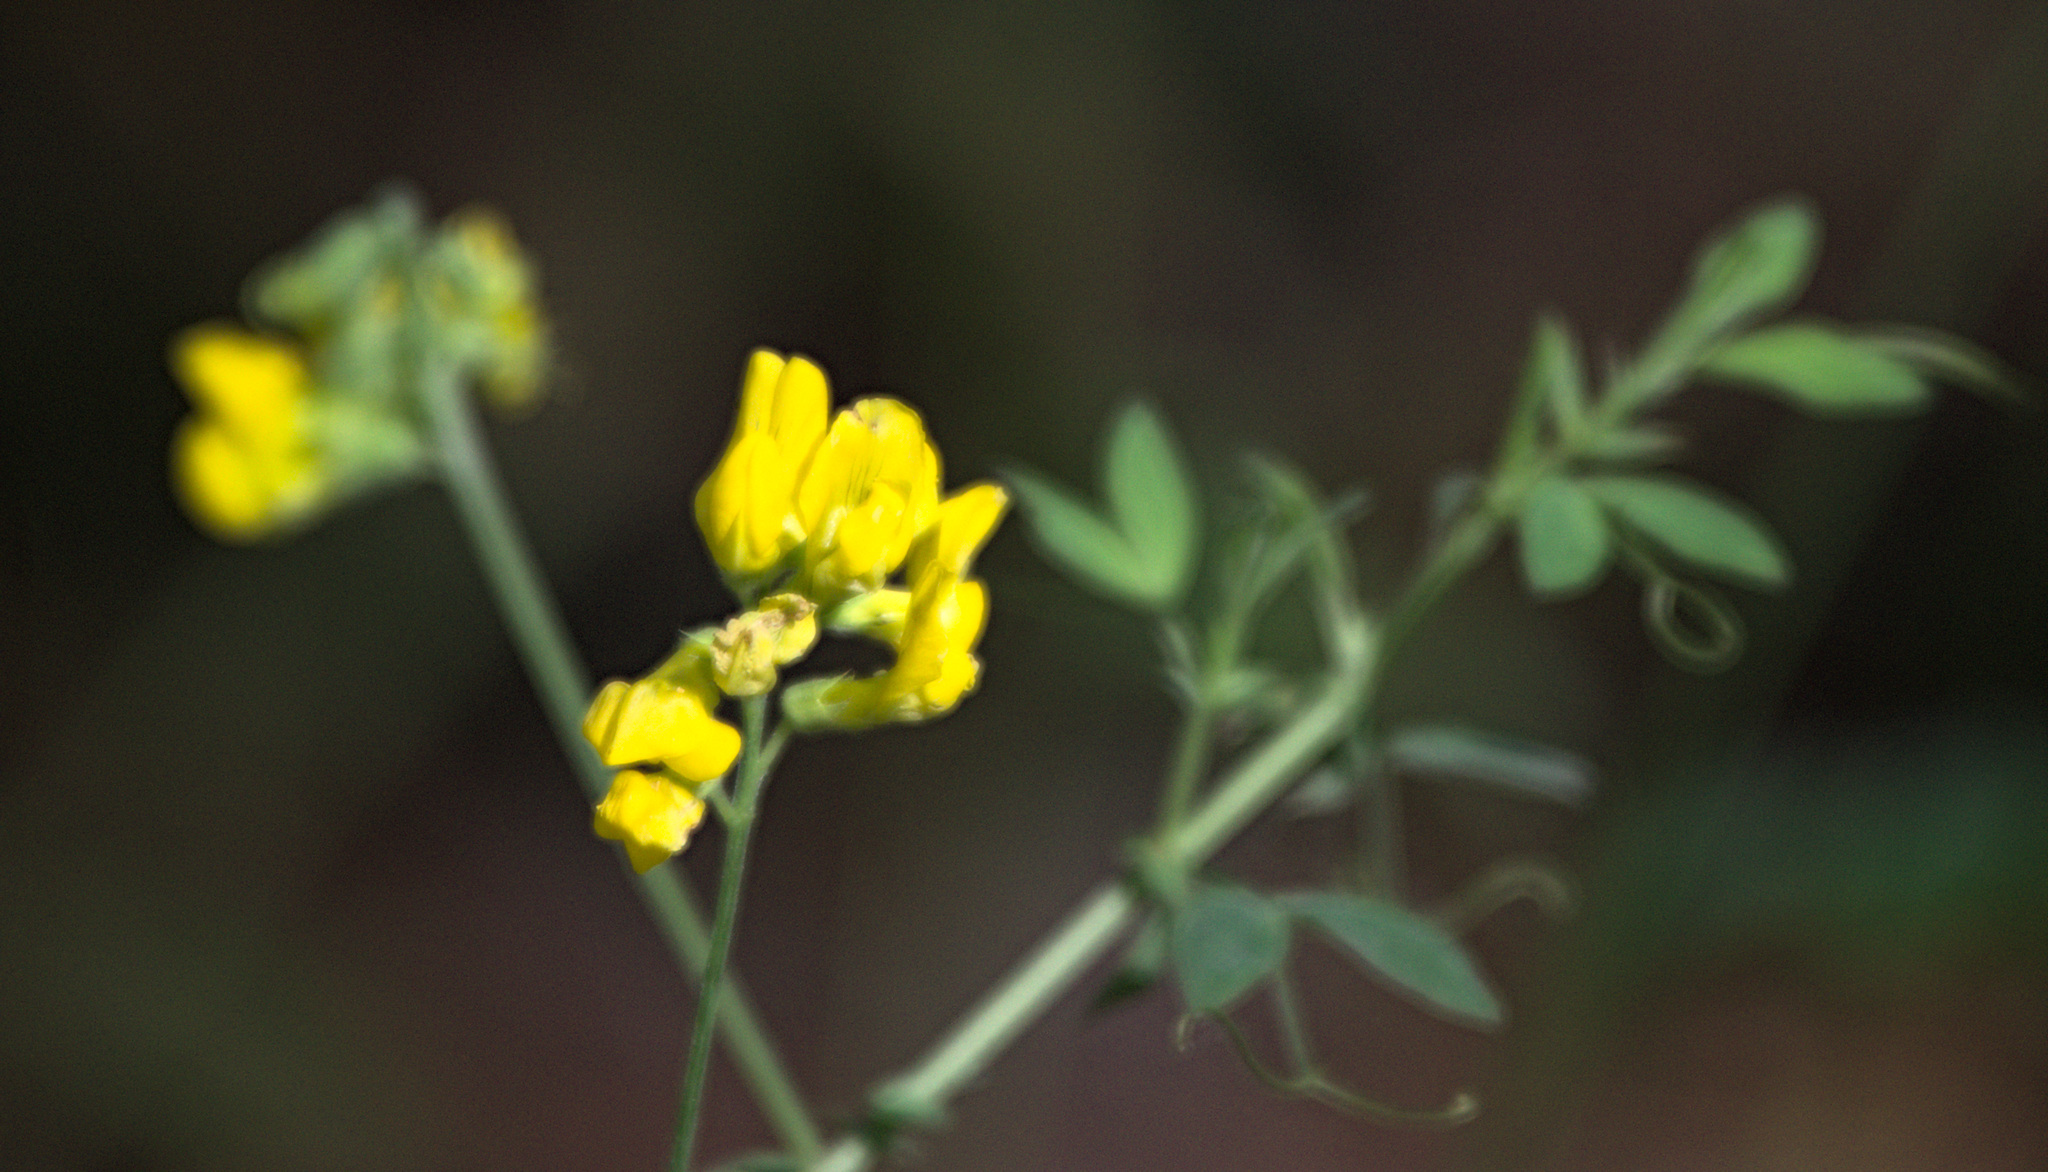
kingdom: Plantae
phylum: Tracheophyta
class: Magnoliopsida
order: Fabales
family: Fabaceae
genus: Lathyrus
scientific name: Lathyrus pratensis
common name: Meadow vetchling
